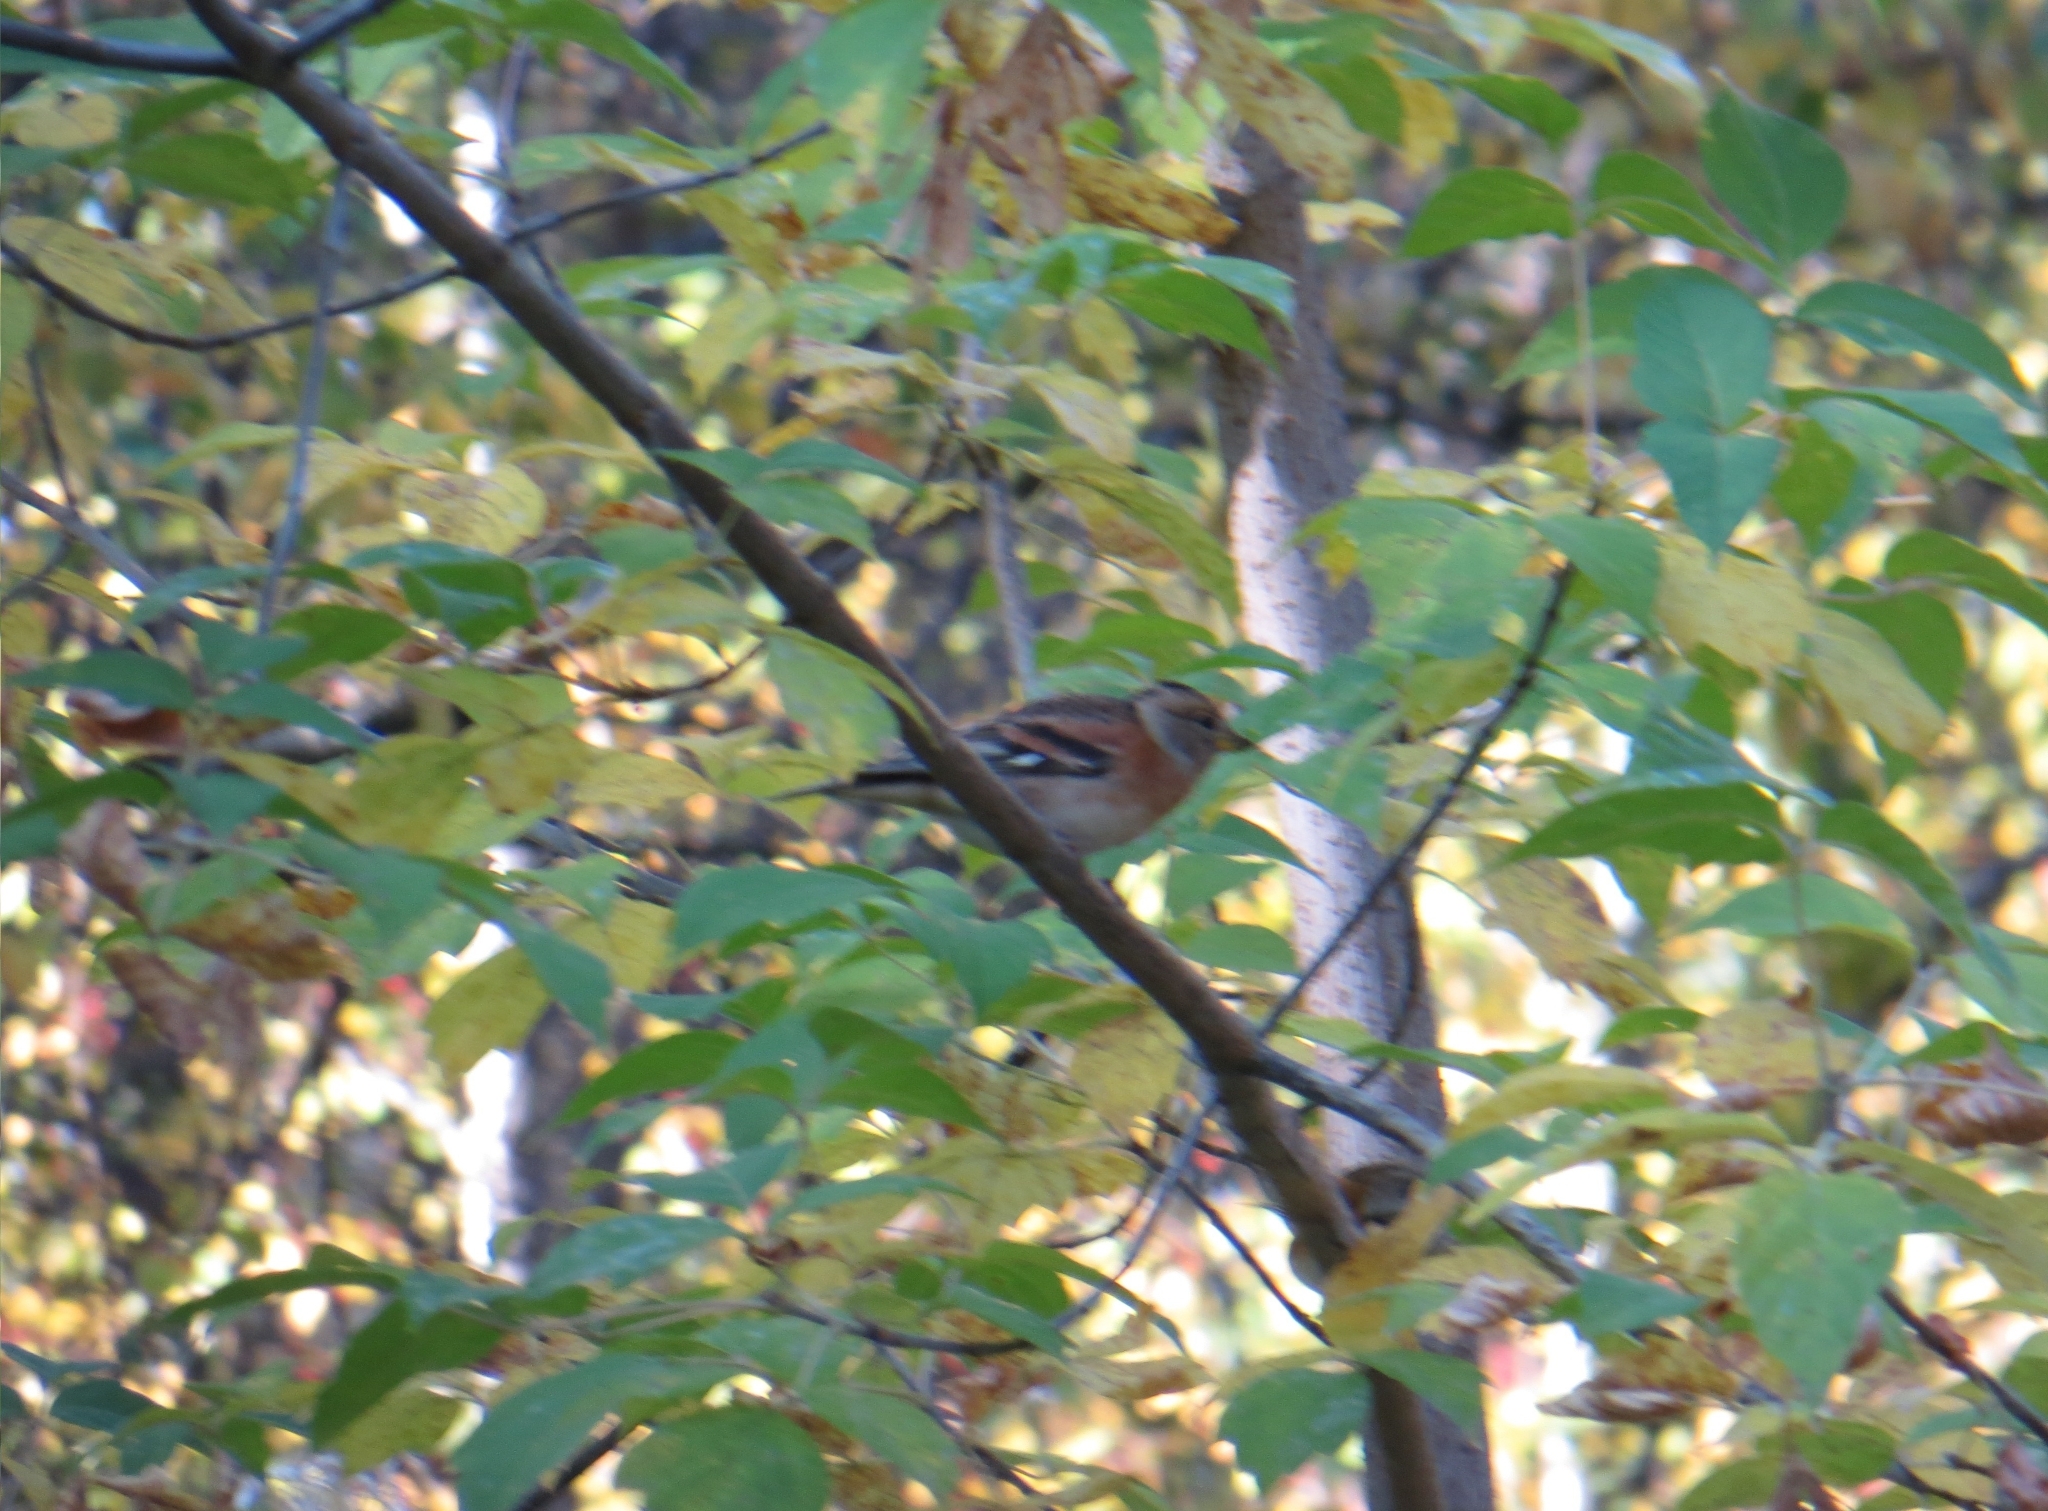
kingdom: Animalia
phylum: Chordata
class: Aves
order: Passeriformes
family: Fringillidae
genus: Fringilla
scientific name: Fringilla montifringilla
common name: Brambling
